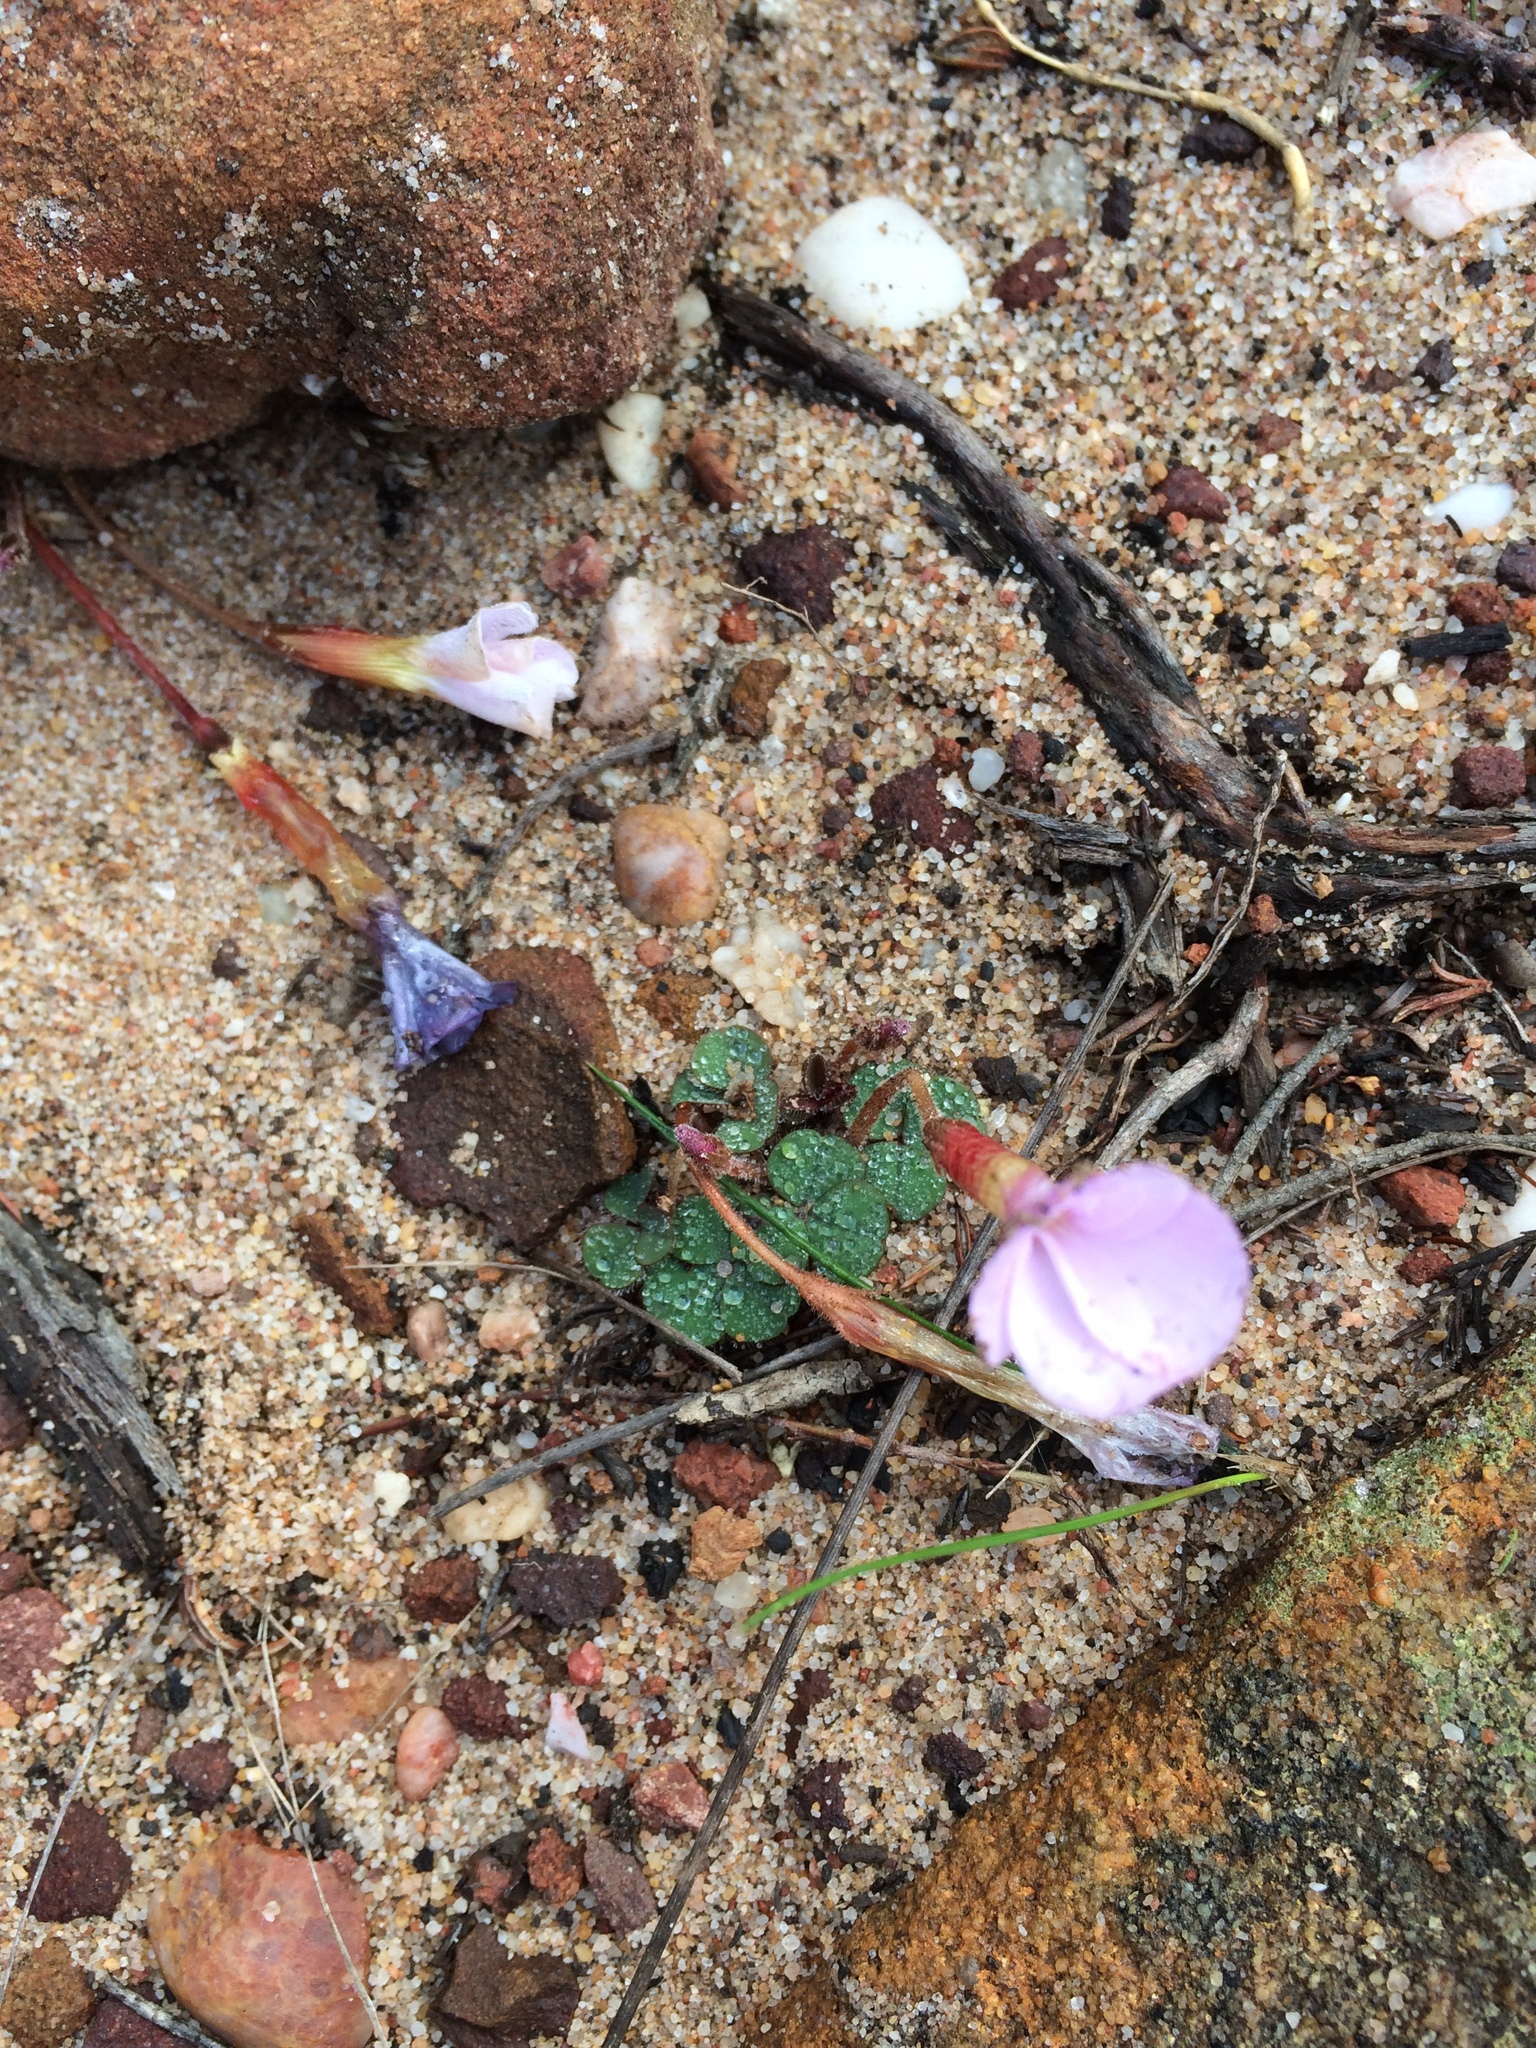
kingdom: Plantae
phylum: Tracheophyta
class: Magnoliopsida
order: Oxalidales
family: Oxalidaceae
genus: Oxalis
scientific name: Oxalis eckloniana
